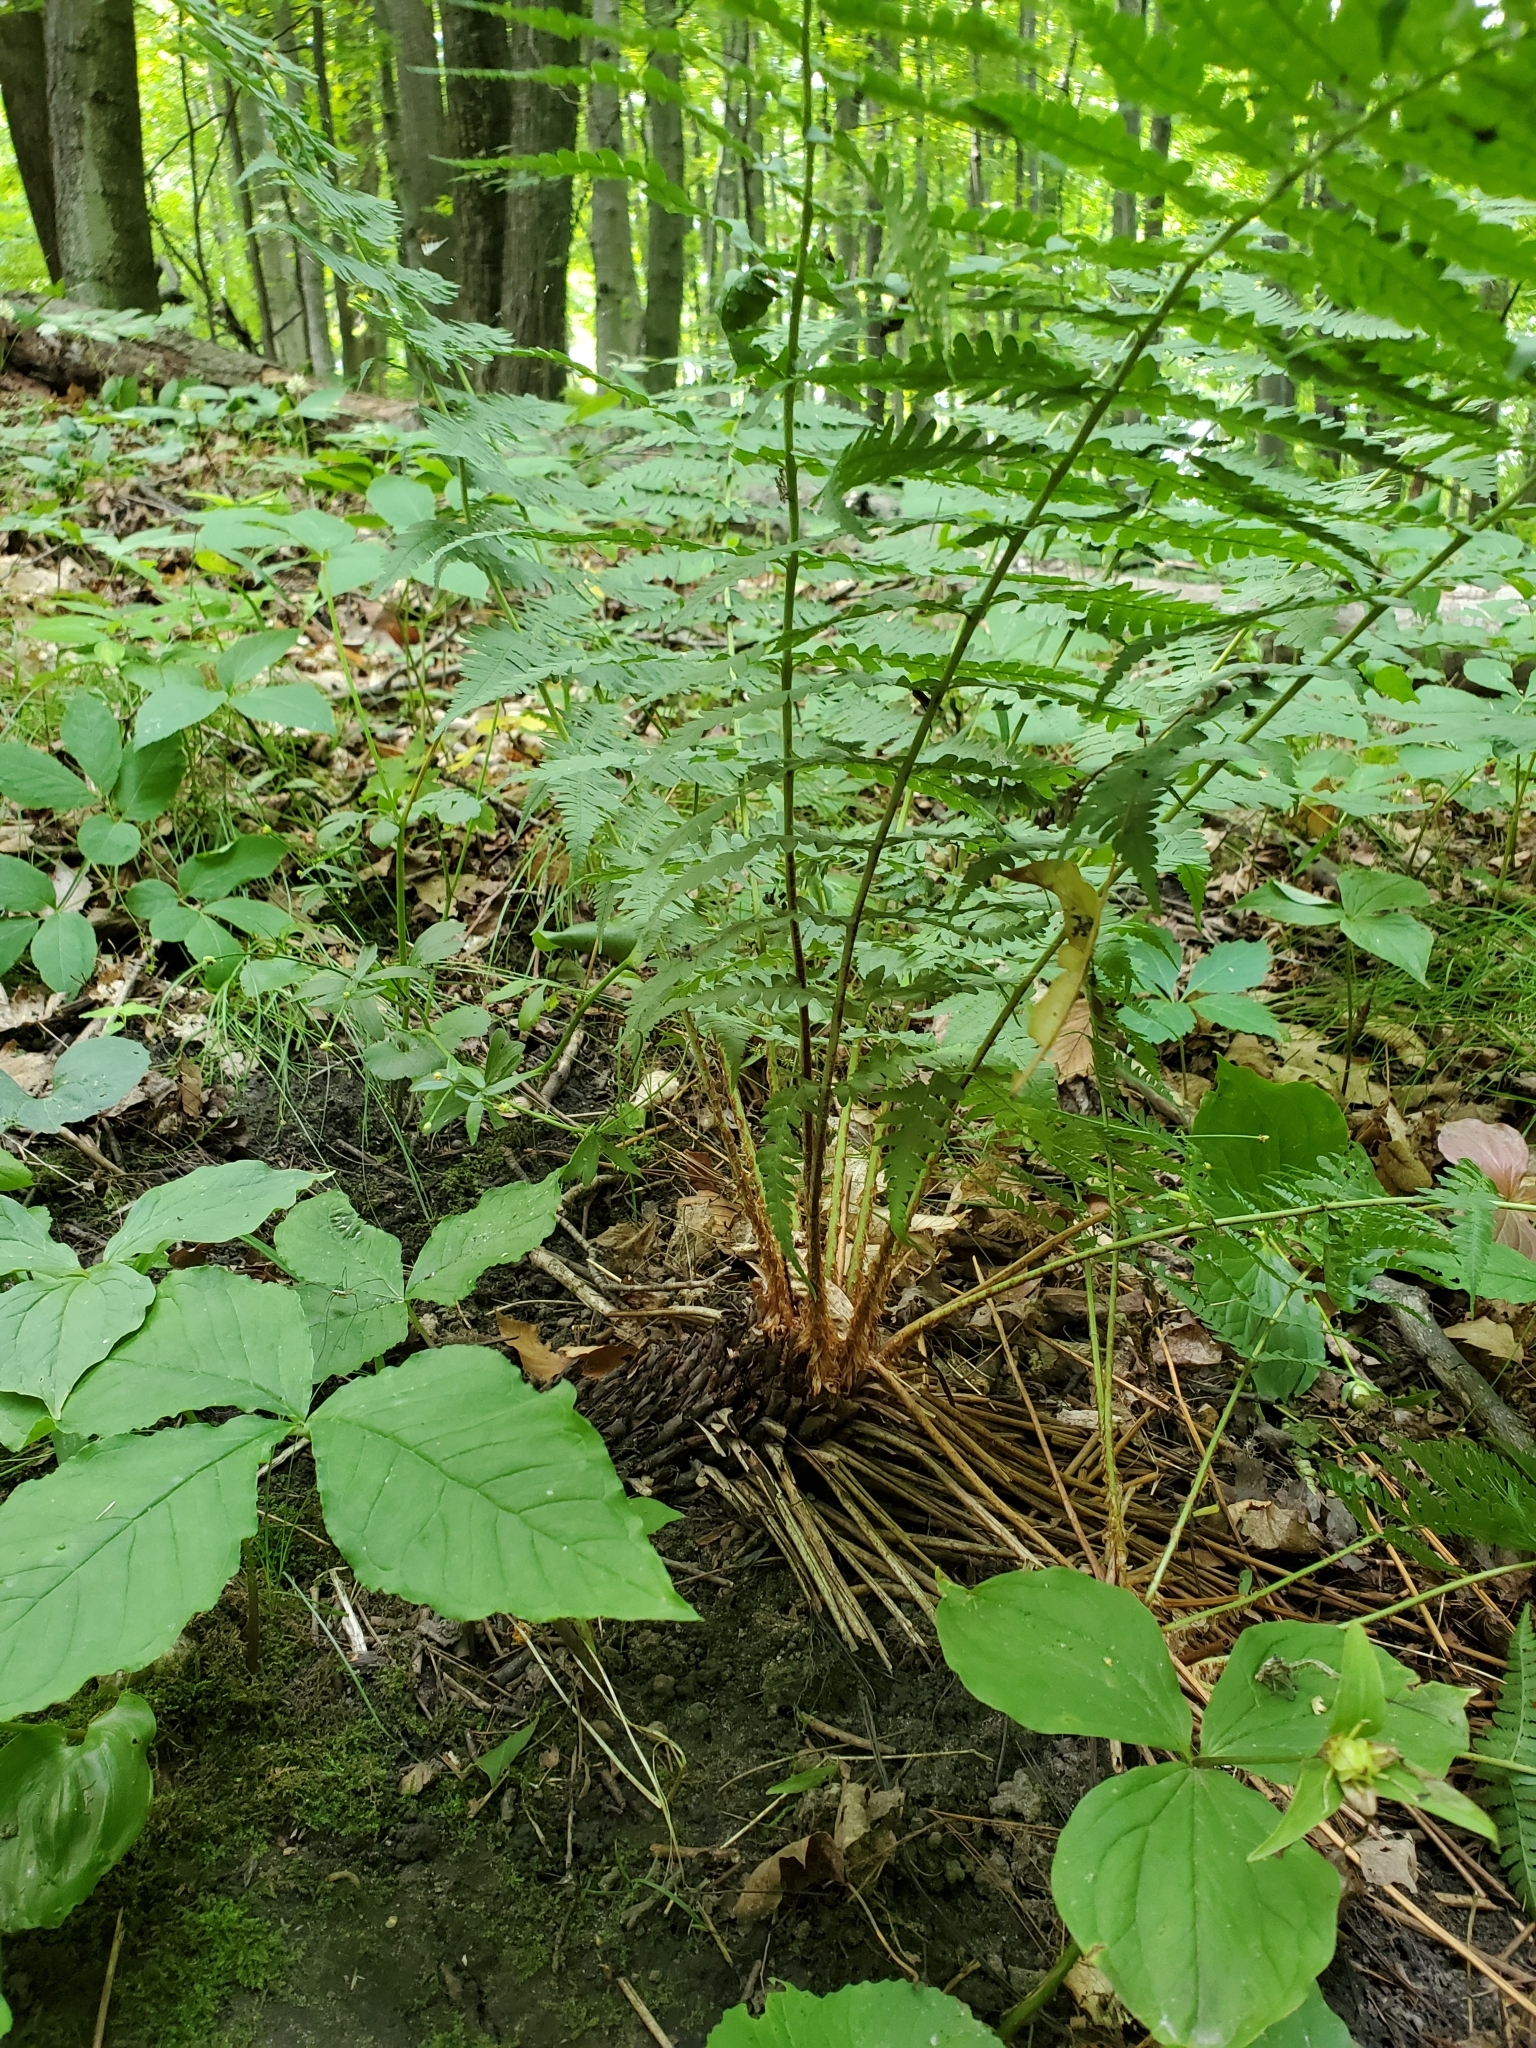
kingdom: Plantae
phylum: Tracheophyta
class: Polypodiopsida
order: Polypodiales
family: Dryopteridaceae
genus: Dryopteris
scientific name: Dryopteris marginalis
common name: Marginal wood fern
